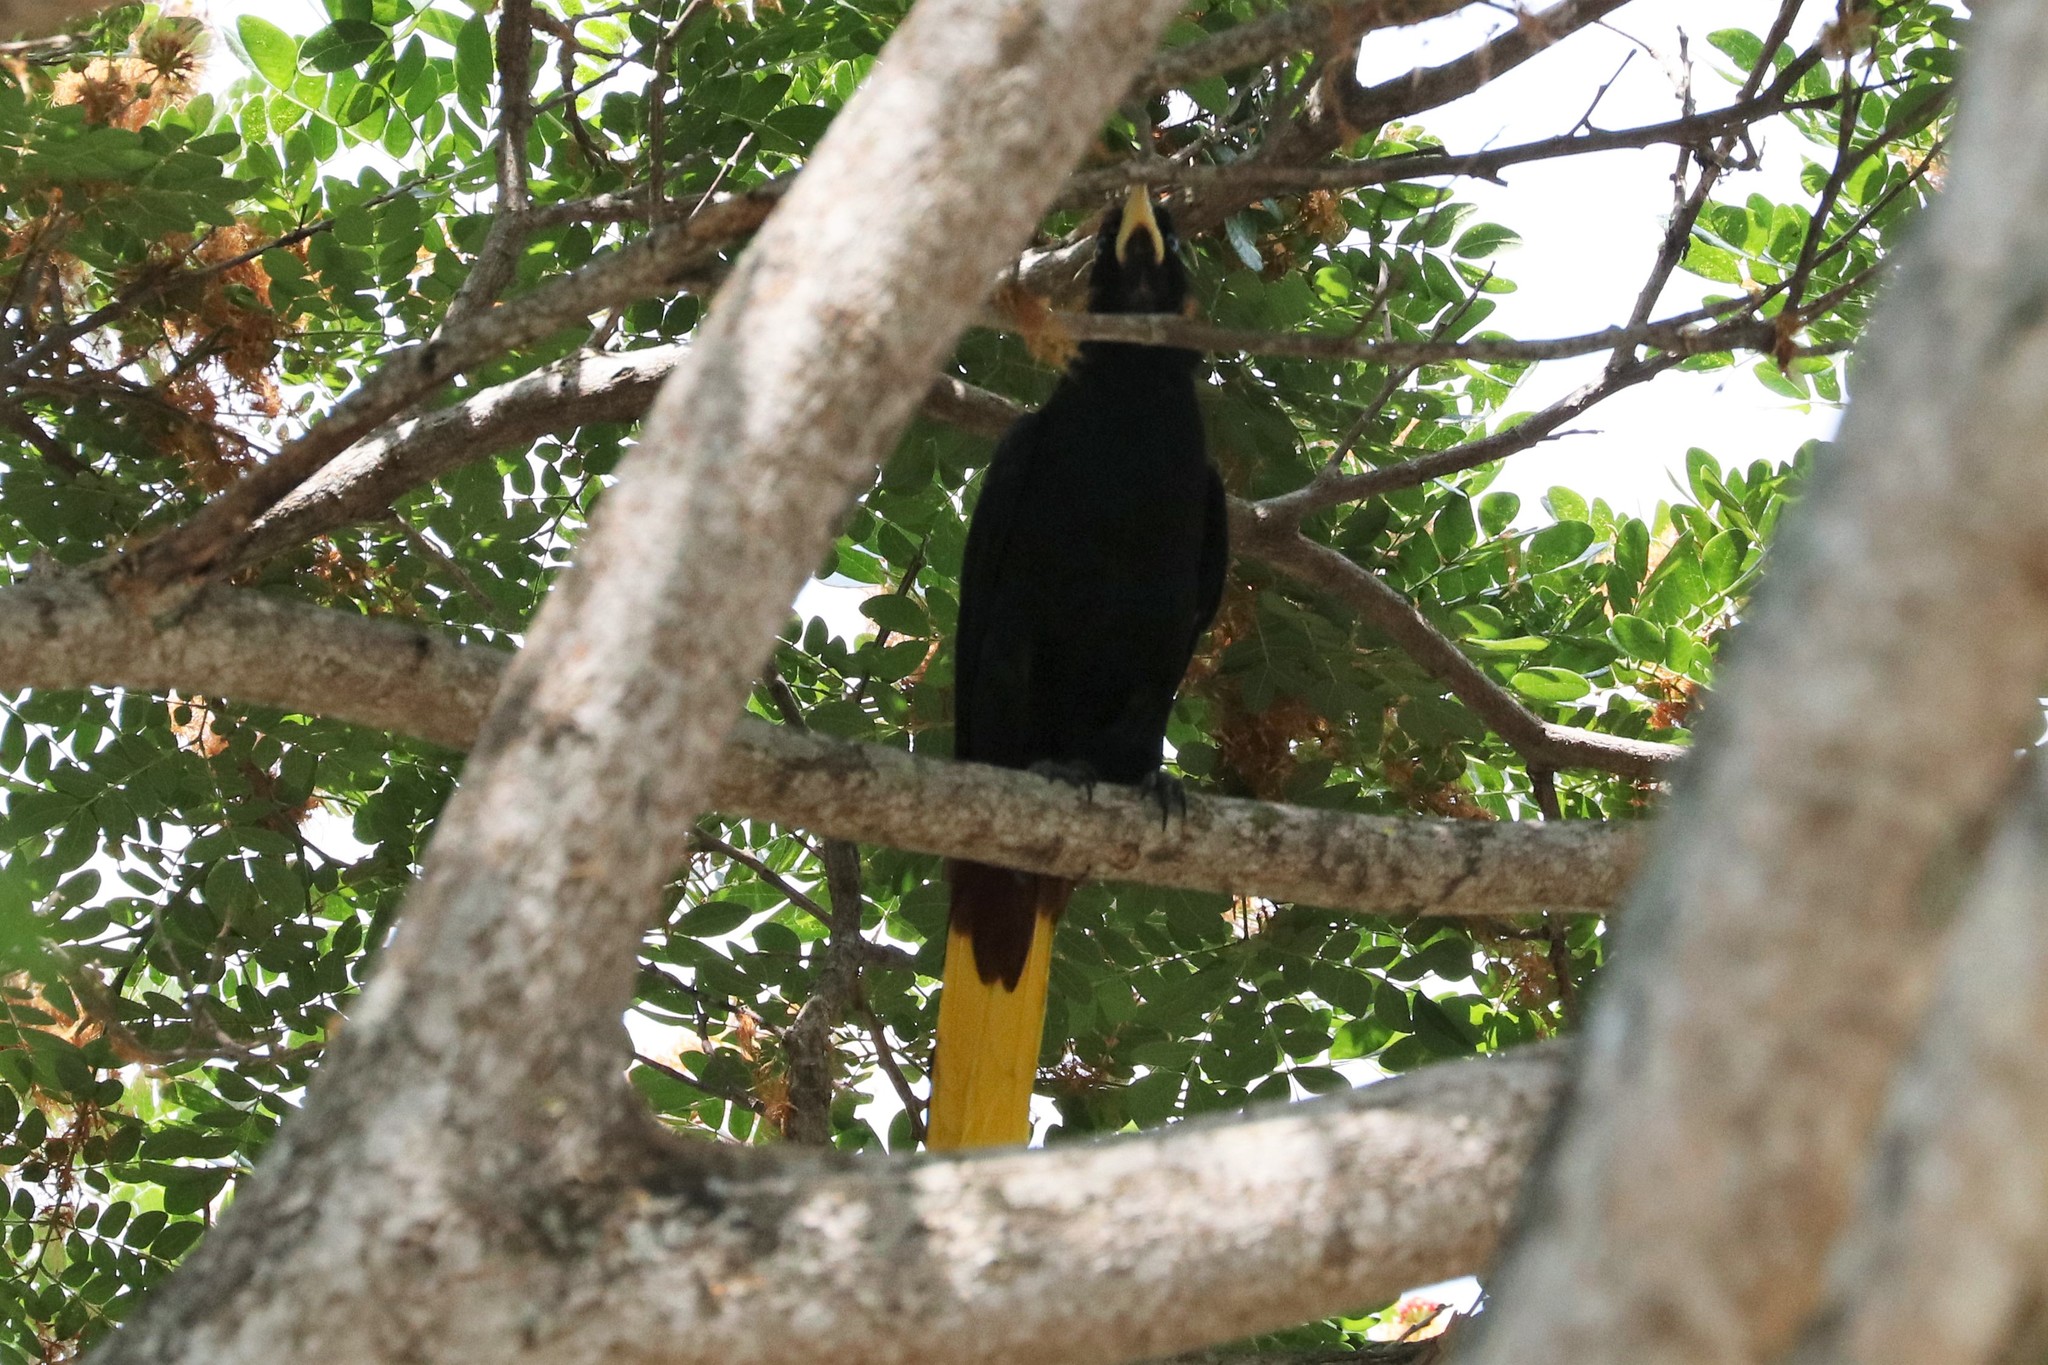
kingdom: Animalia
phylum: Chordata
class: Aves
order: Passeriformes
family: Icteridae
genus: Psarocolius
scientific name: Psarocolius decumanus
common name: Crested oropendola
